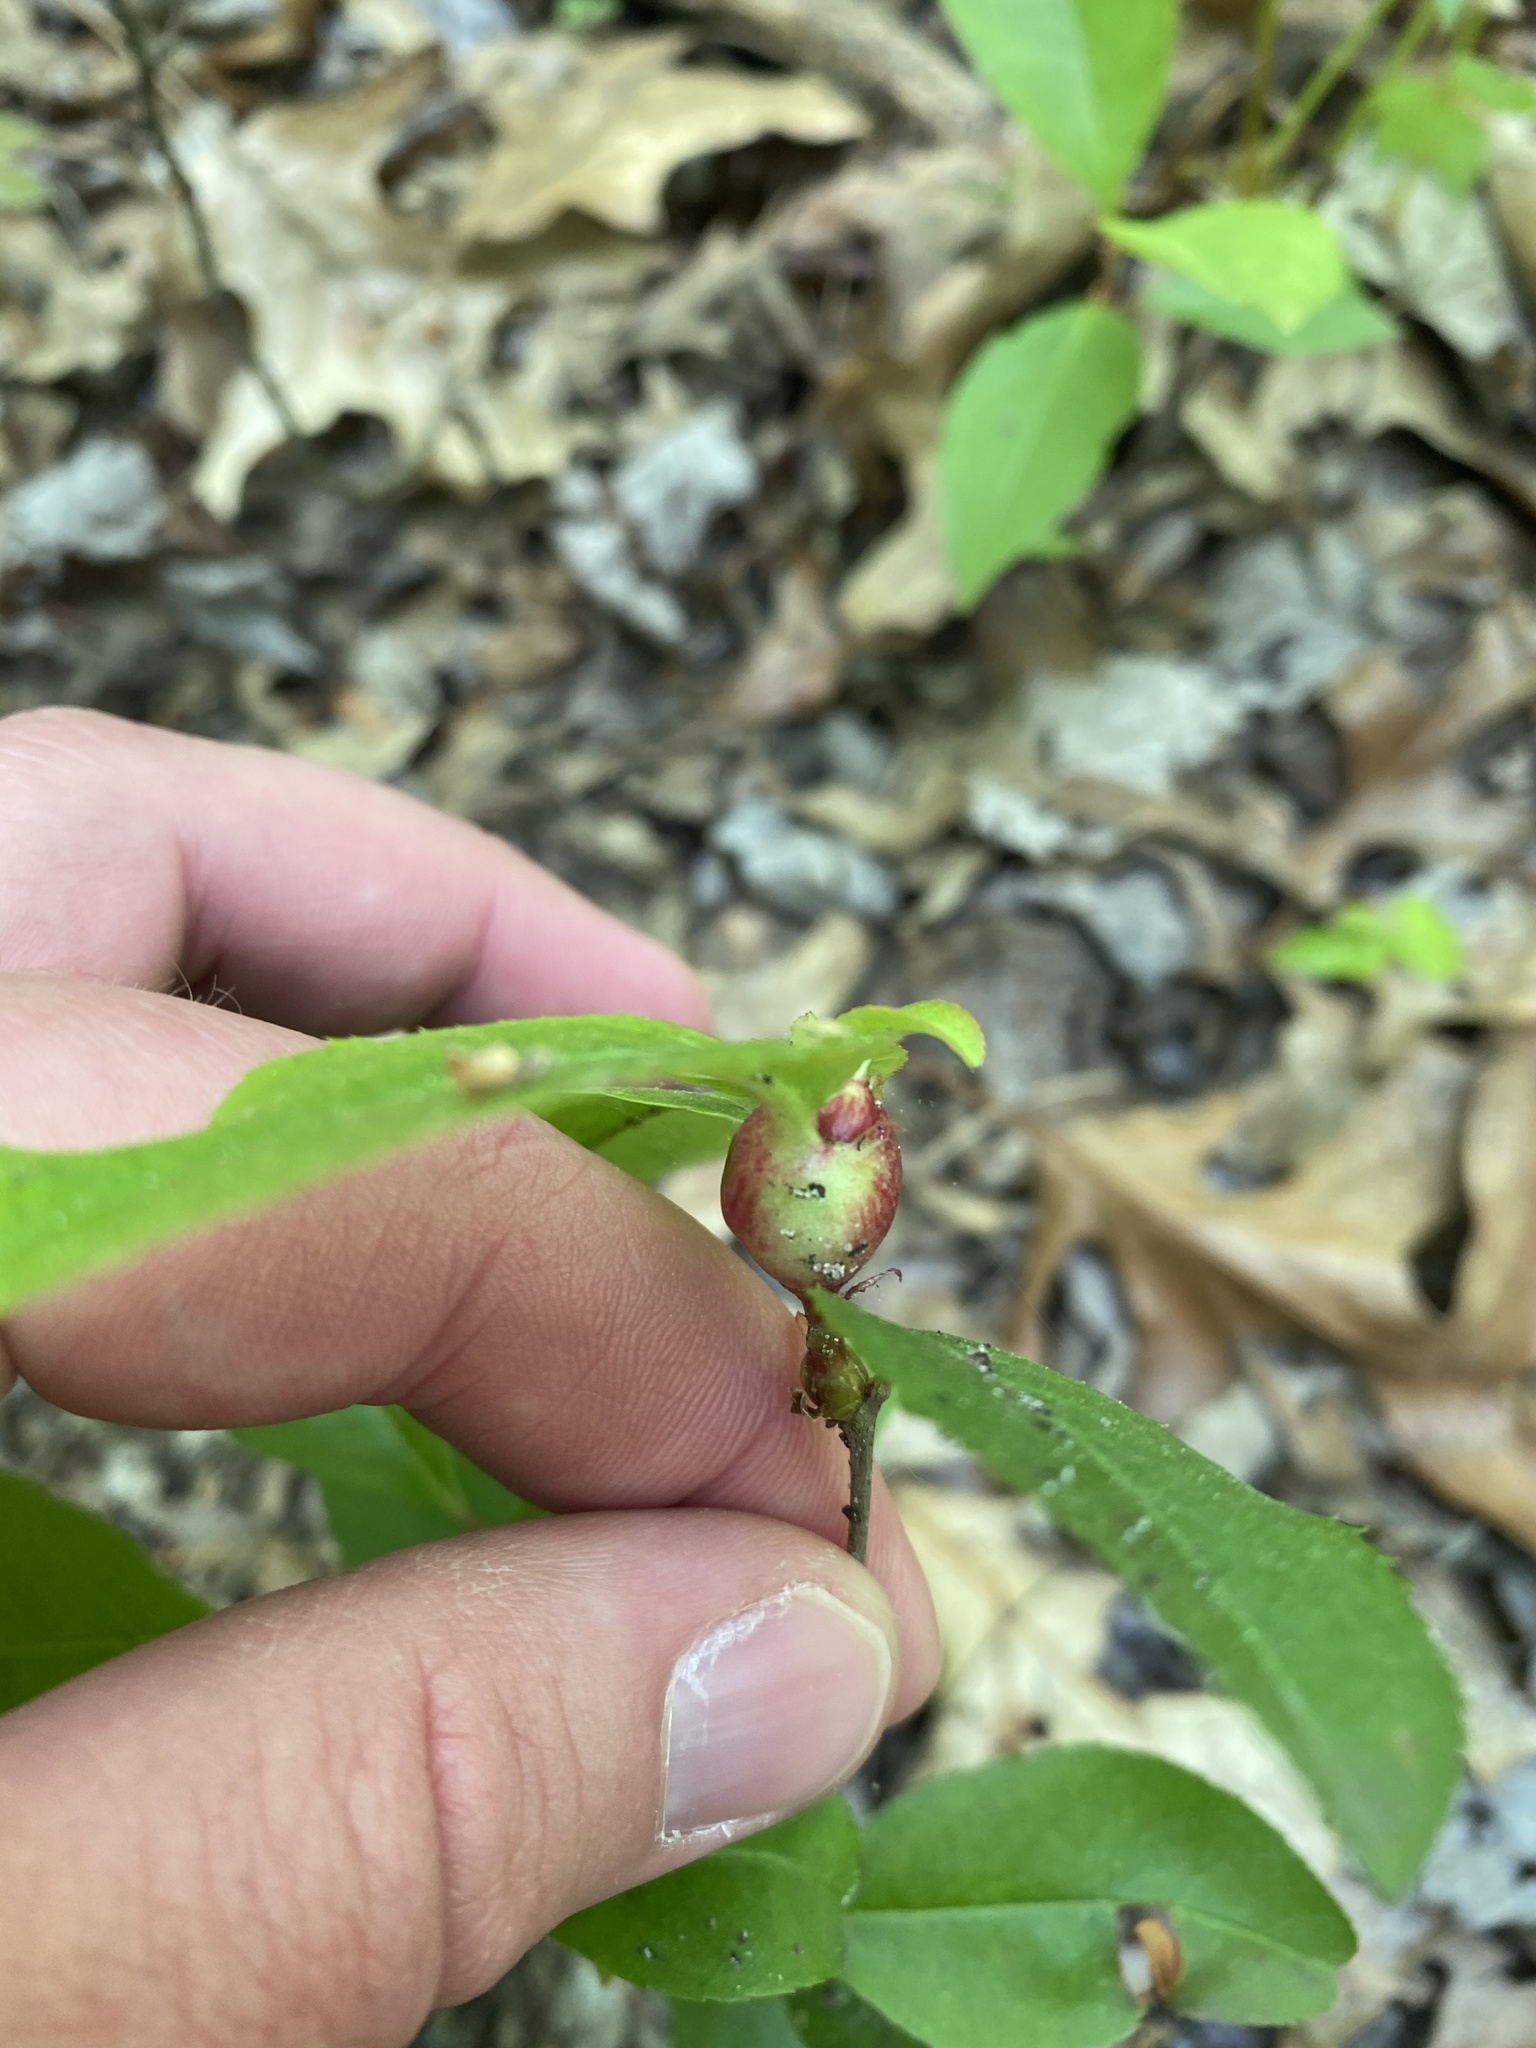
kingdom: Animalia
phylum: Arthropoda
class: Insecta
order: Diptera
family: Cecidomyiidae
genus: Contarinia
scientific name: Contarinia cerasiserotinae
